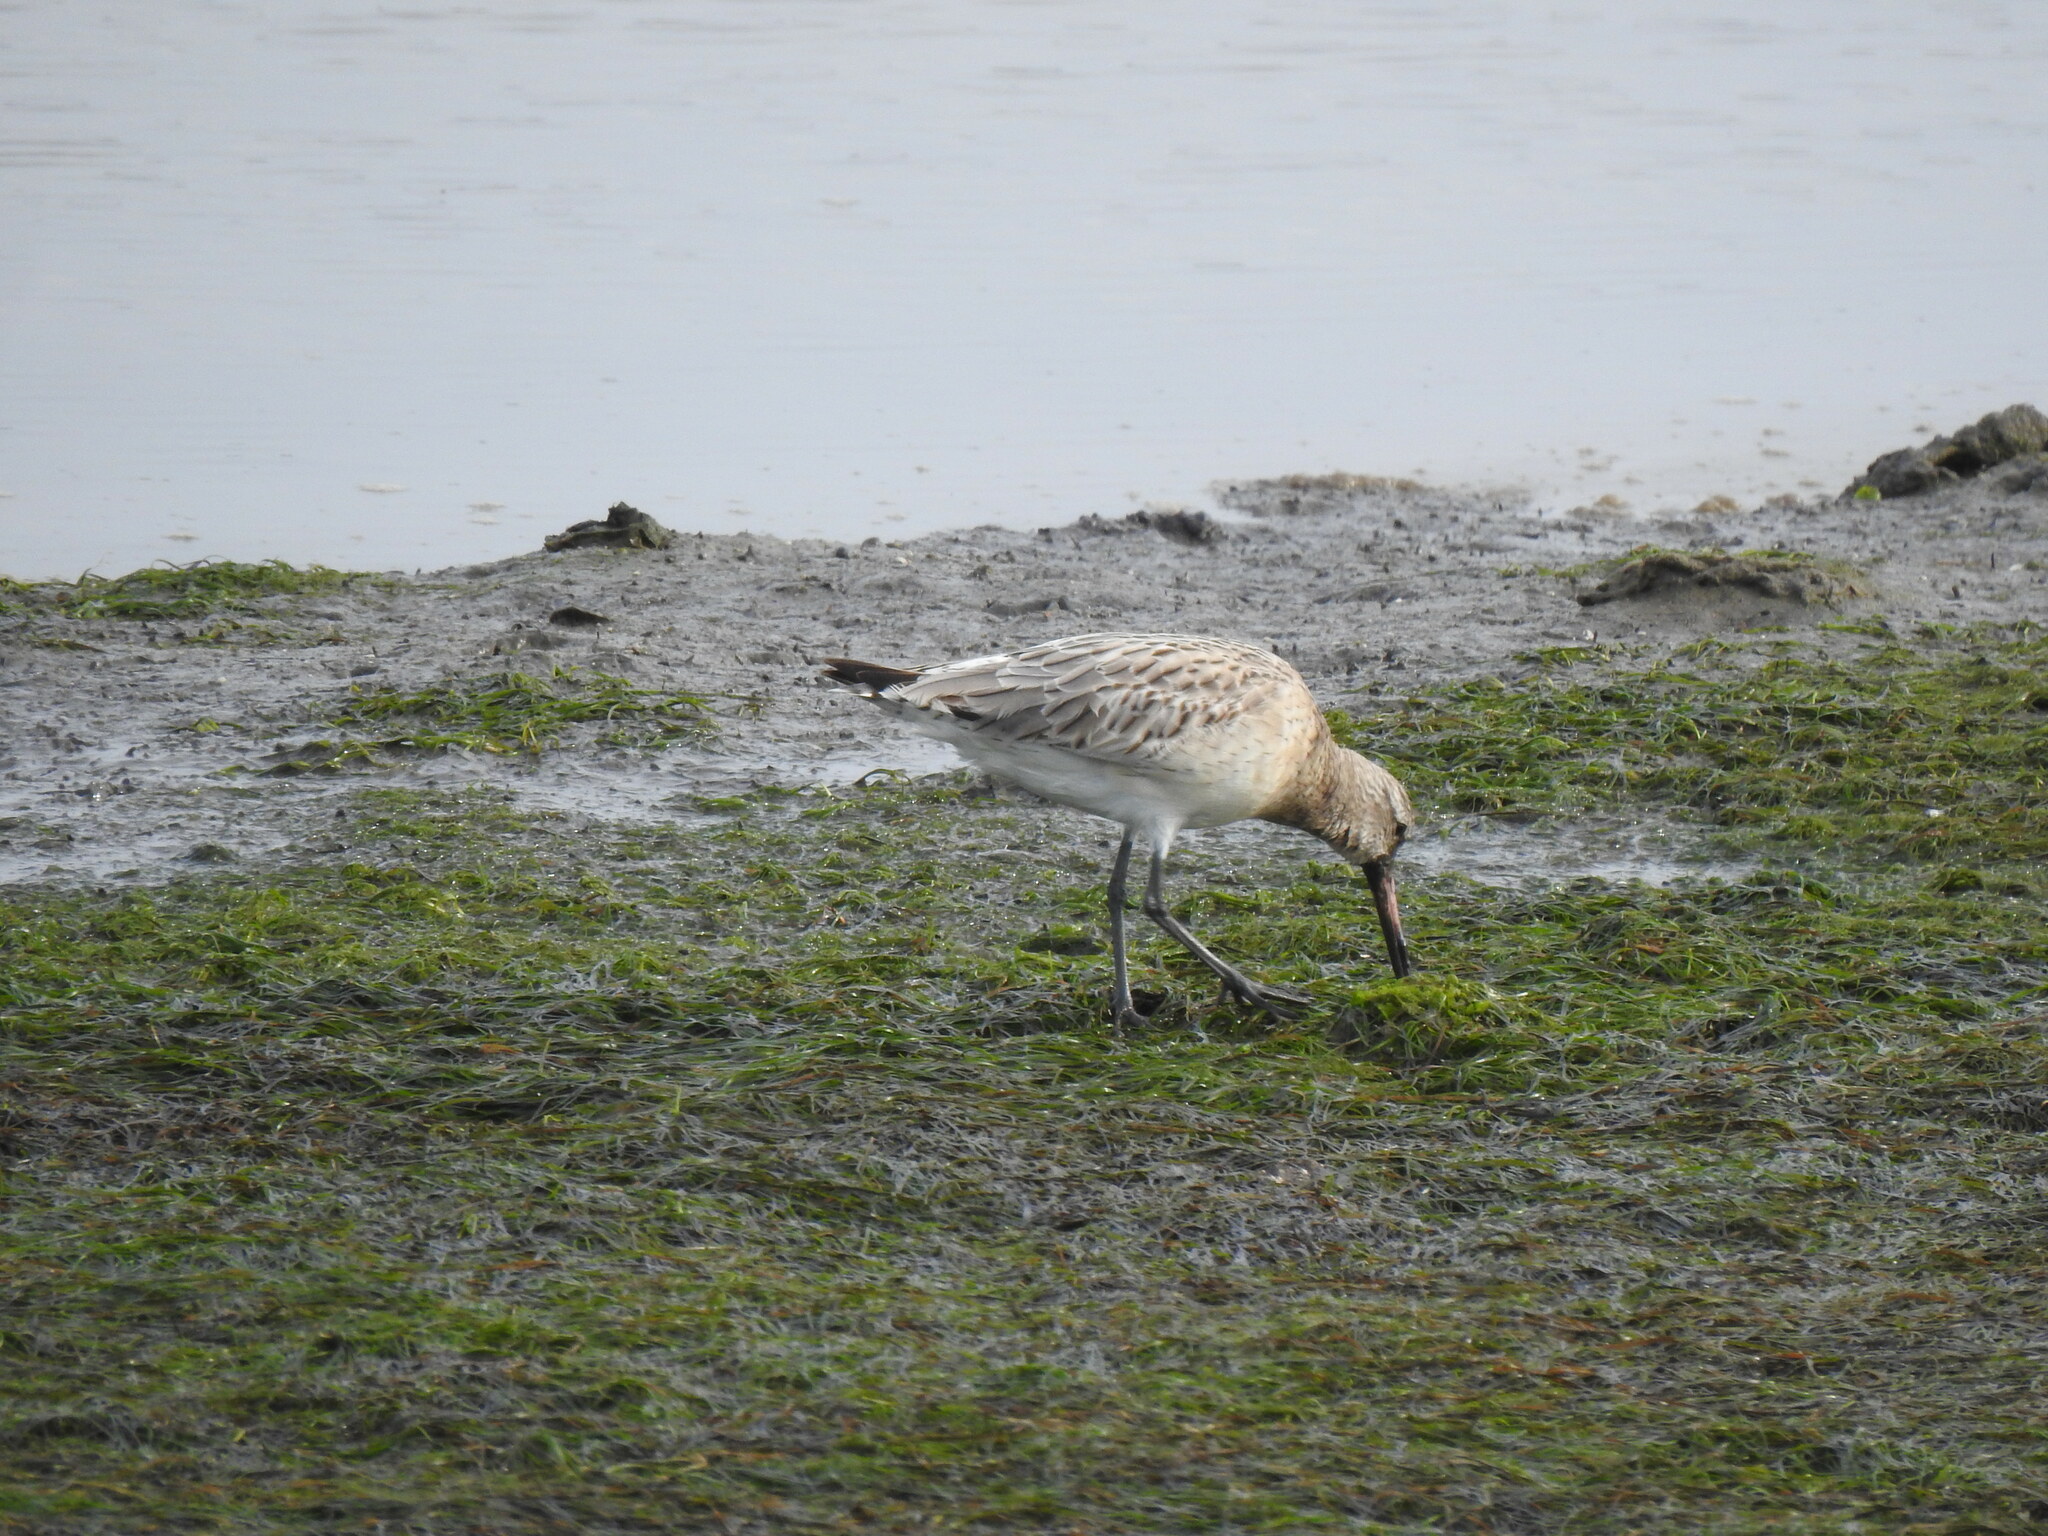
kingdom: Animalia
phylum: Chordata
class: Aves
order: Charadriiformes
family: Scolopacidae
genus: Limosa
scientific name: Limosa lapponica
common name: Bar-tailed godwit
